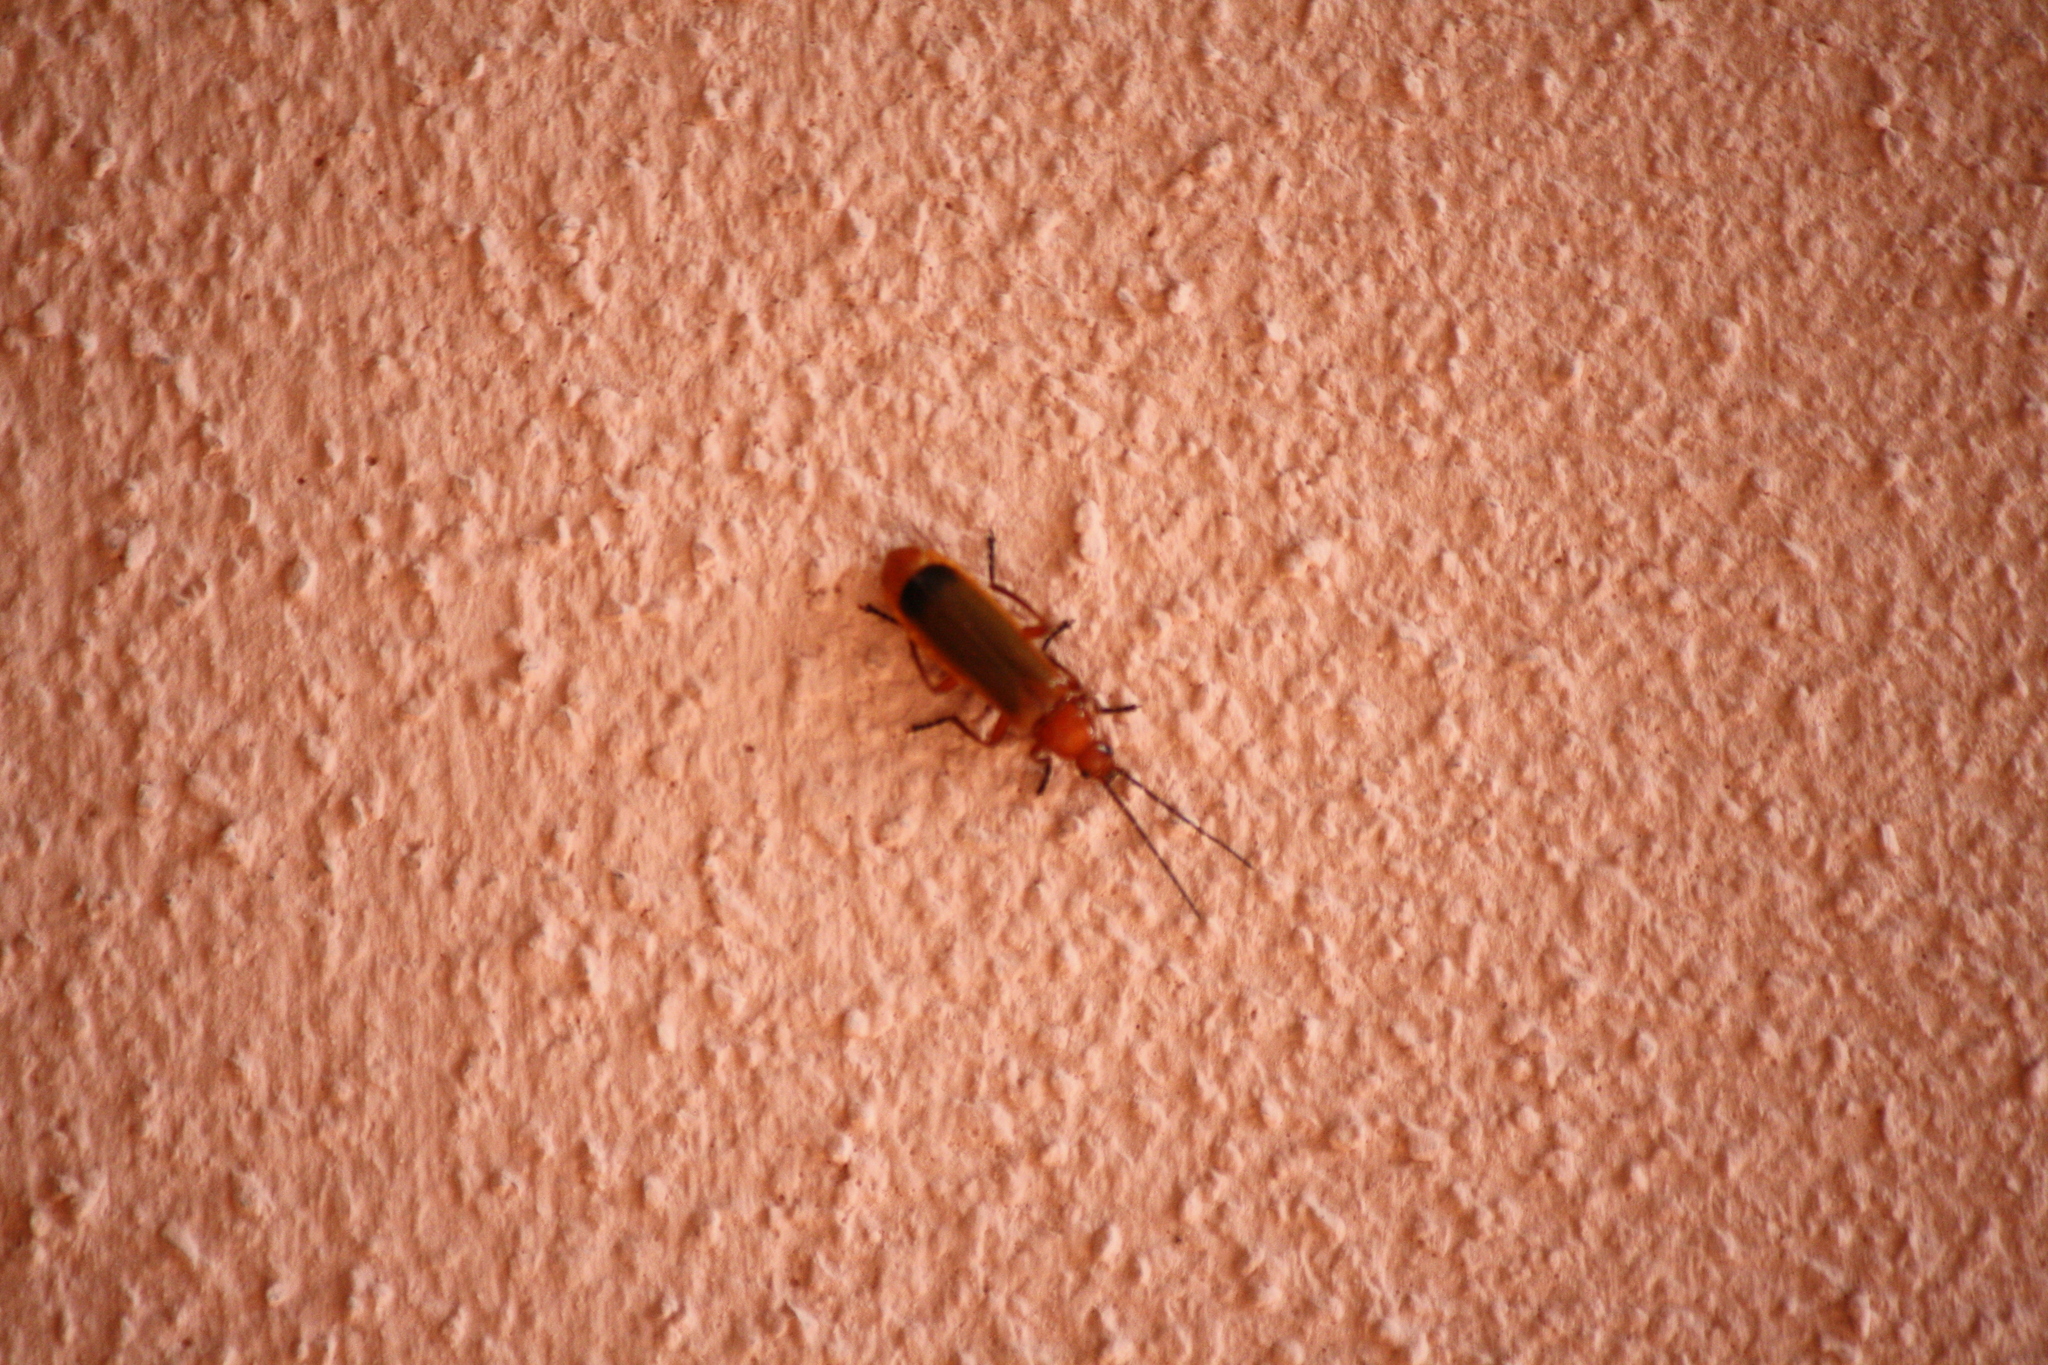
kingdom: Animalia
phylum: Arthropoda
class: Insecta
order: Coleoptera
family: Cantharidae
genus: Rhagonycha
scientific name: Rhagonycha fulva
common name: Common red soldier beetle
